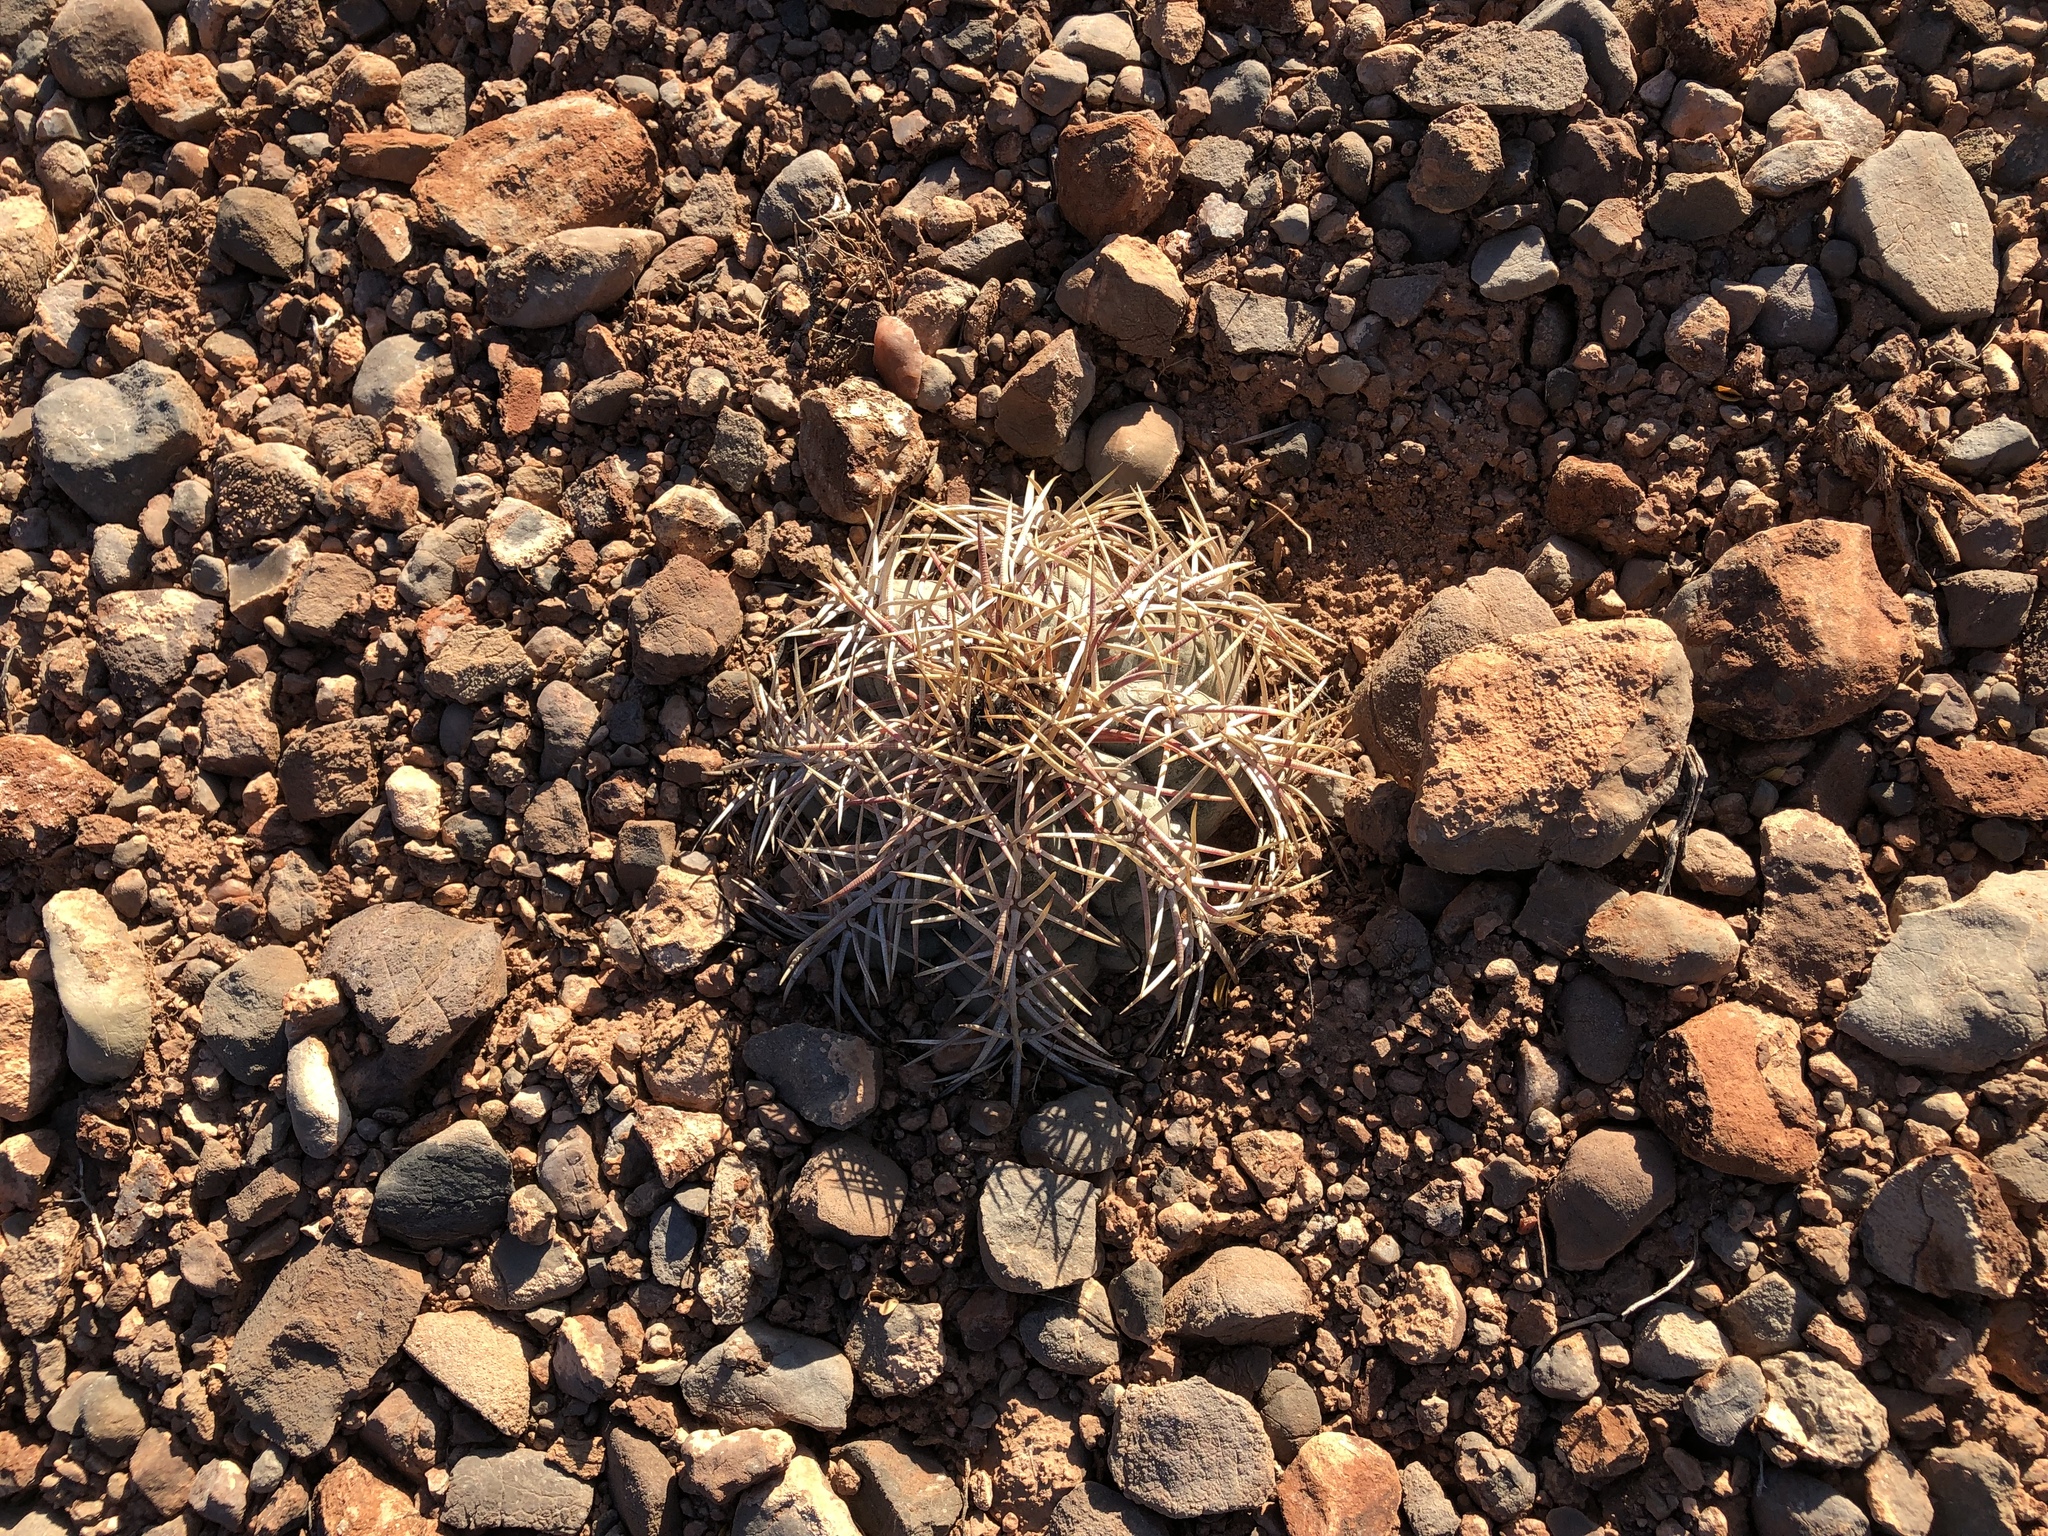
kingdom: Plantae
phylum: Tracheophyta
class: Magnoliopsida
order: Caryophyllales
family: Cactaceae
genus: Echinocactus
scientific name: Echinocactus horizonthalonius
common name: Devilshead
